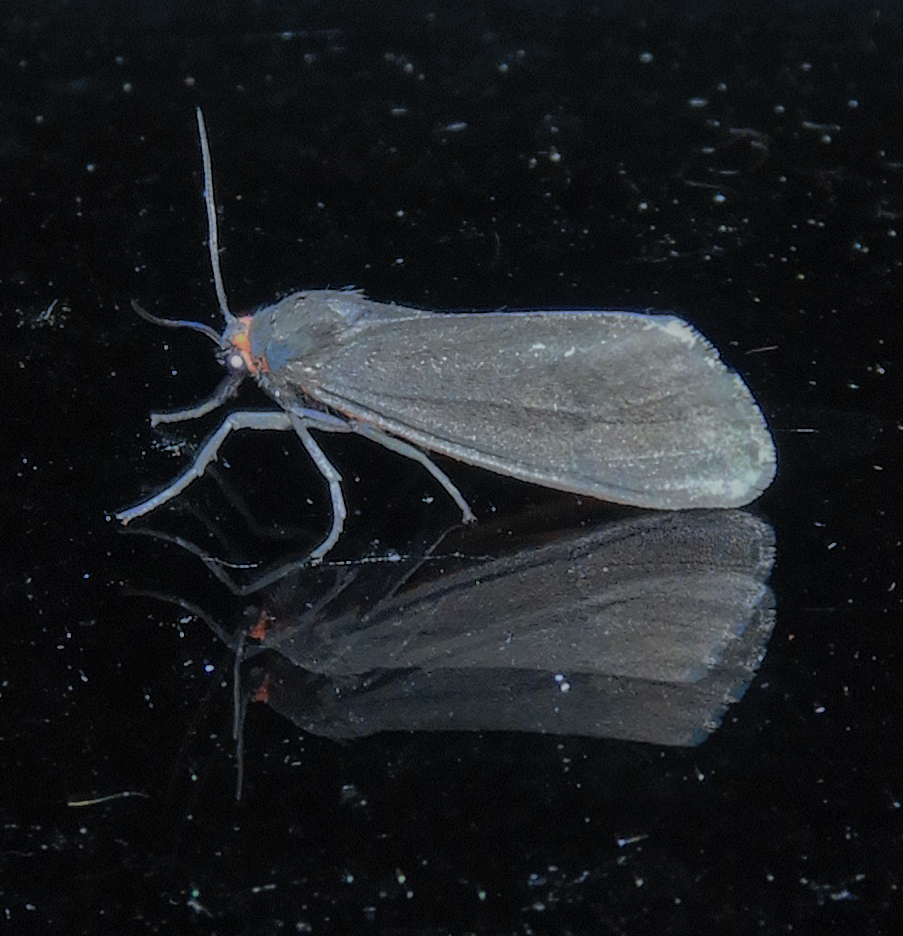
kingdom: Animalia
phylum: Arthropoda
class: Insecta
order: Lepidoptera
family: Erebidae
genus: Virbia
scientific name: Virbia laeta
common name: Joyful holomelina moth
